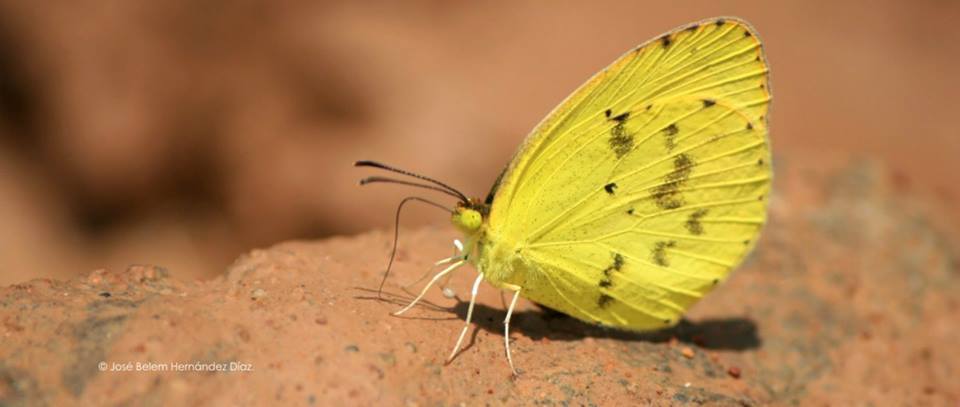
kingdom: Animalia
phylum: Arthropoda
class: Insecta
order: Lepidoptera
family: Pieridae
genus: Pyrisitia
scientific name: Pyrisitia lisa
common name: Little yellow
